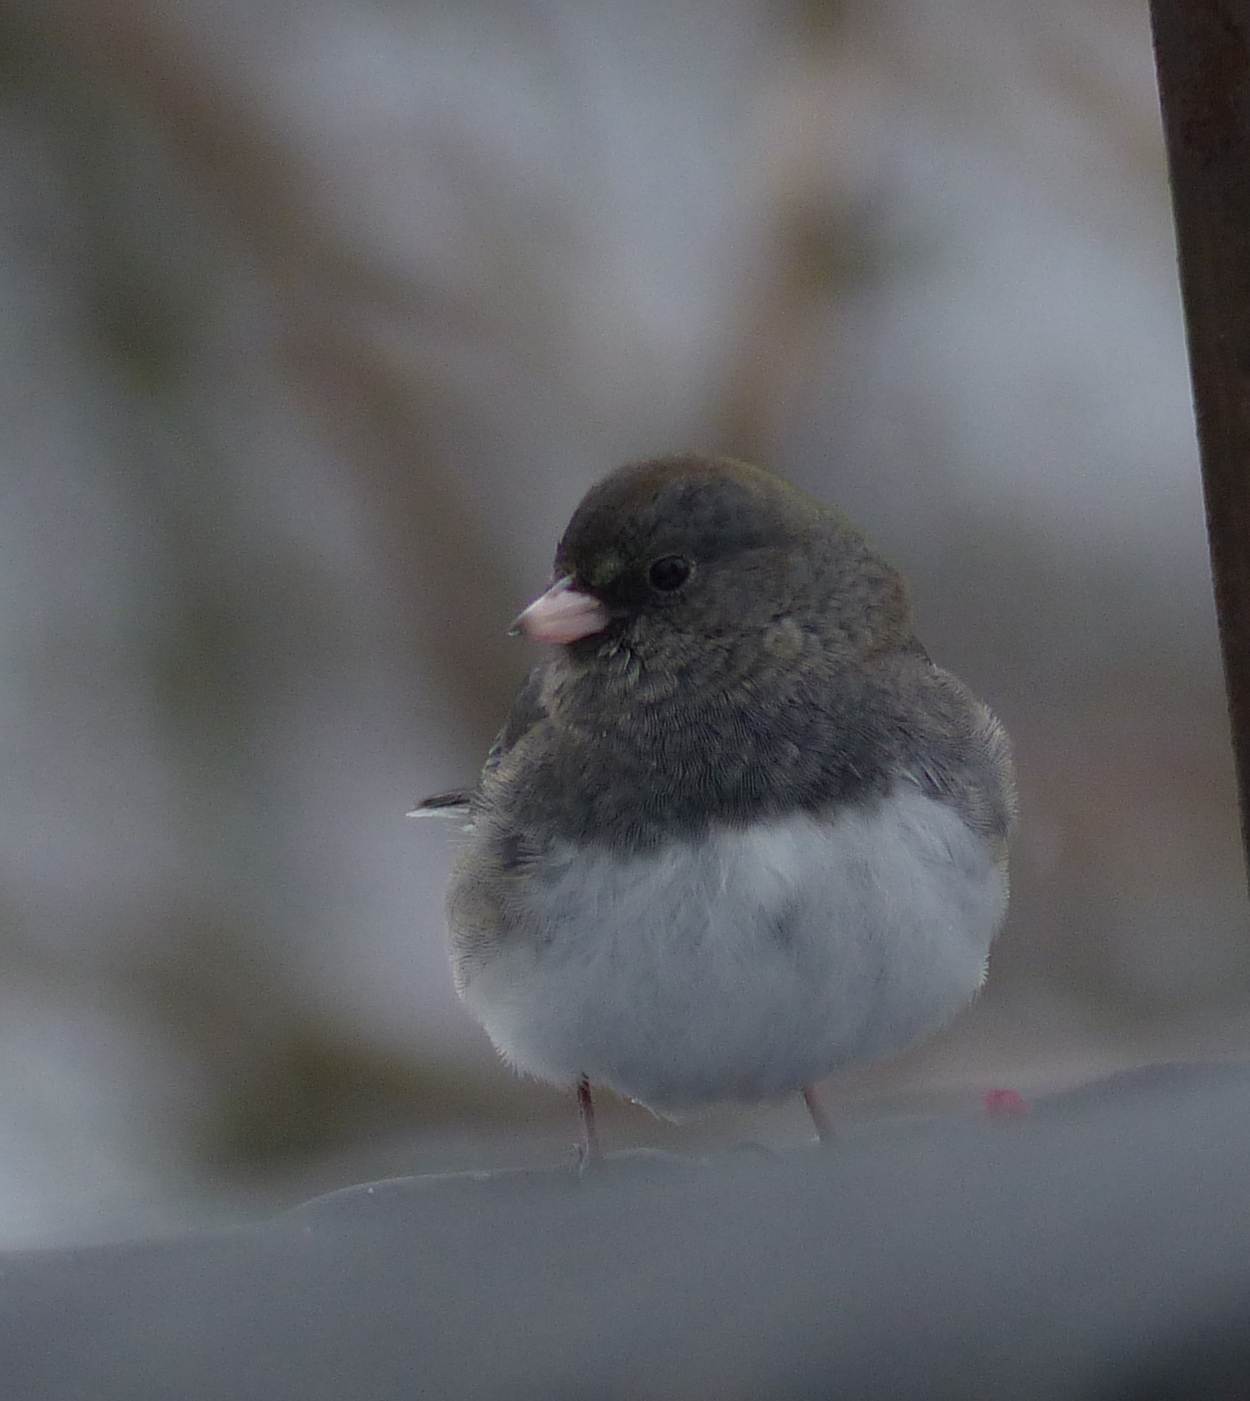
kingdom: Animalia
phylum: Chordata
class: Aves
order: Passeriformes
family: Passerellidae
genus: Junco
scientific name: Junco hyemalis
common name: Dark-eyed junco
